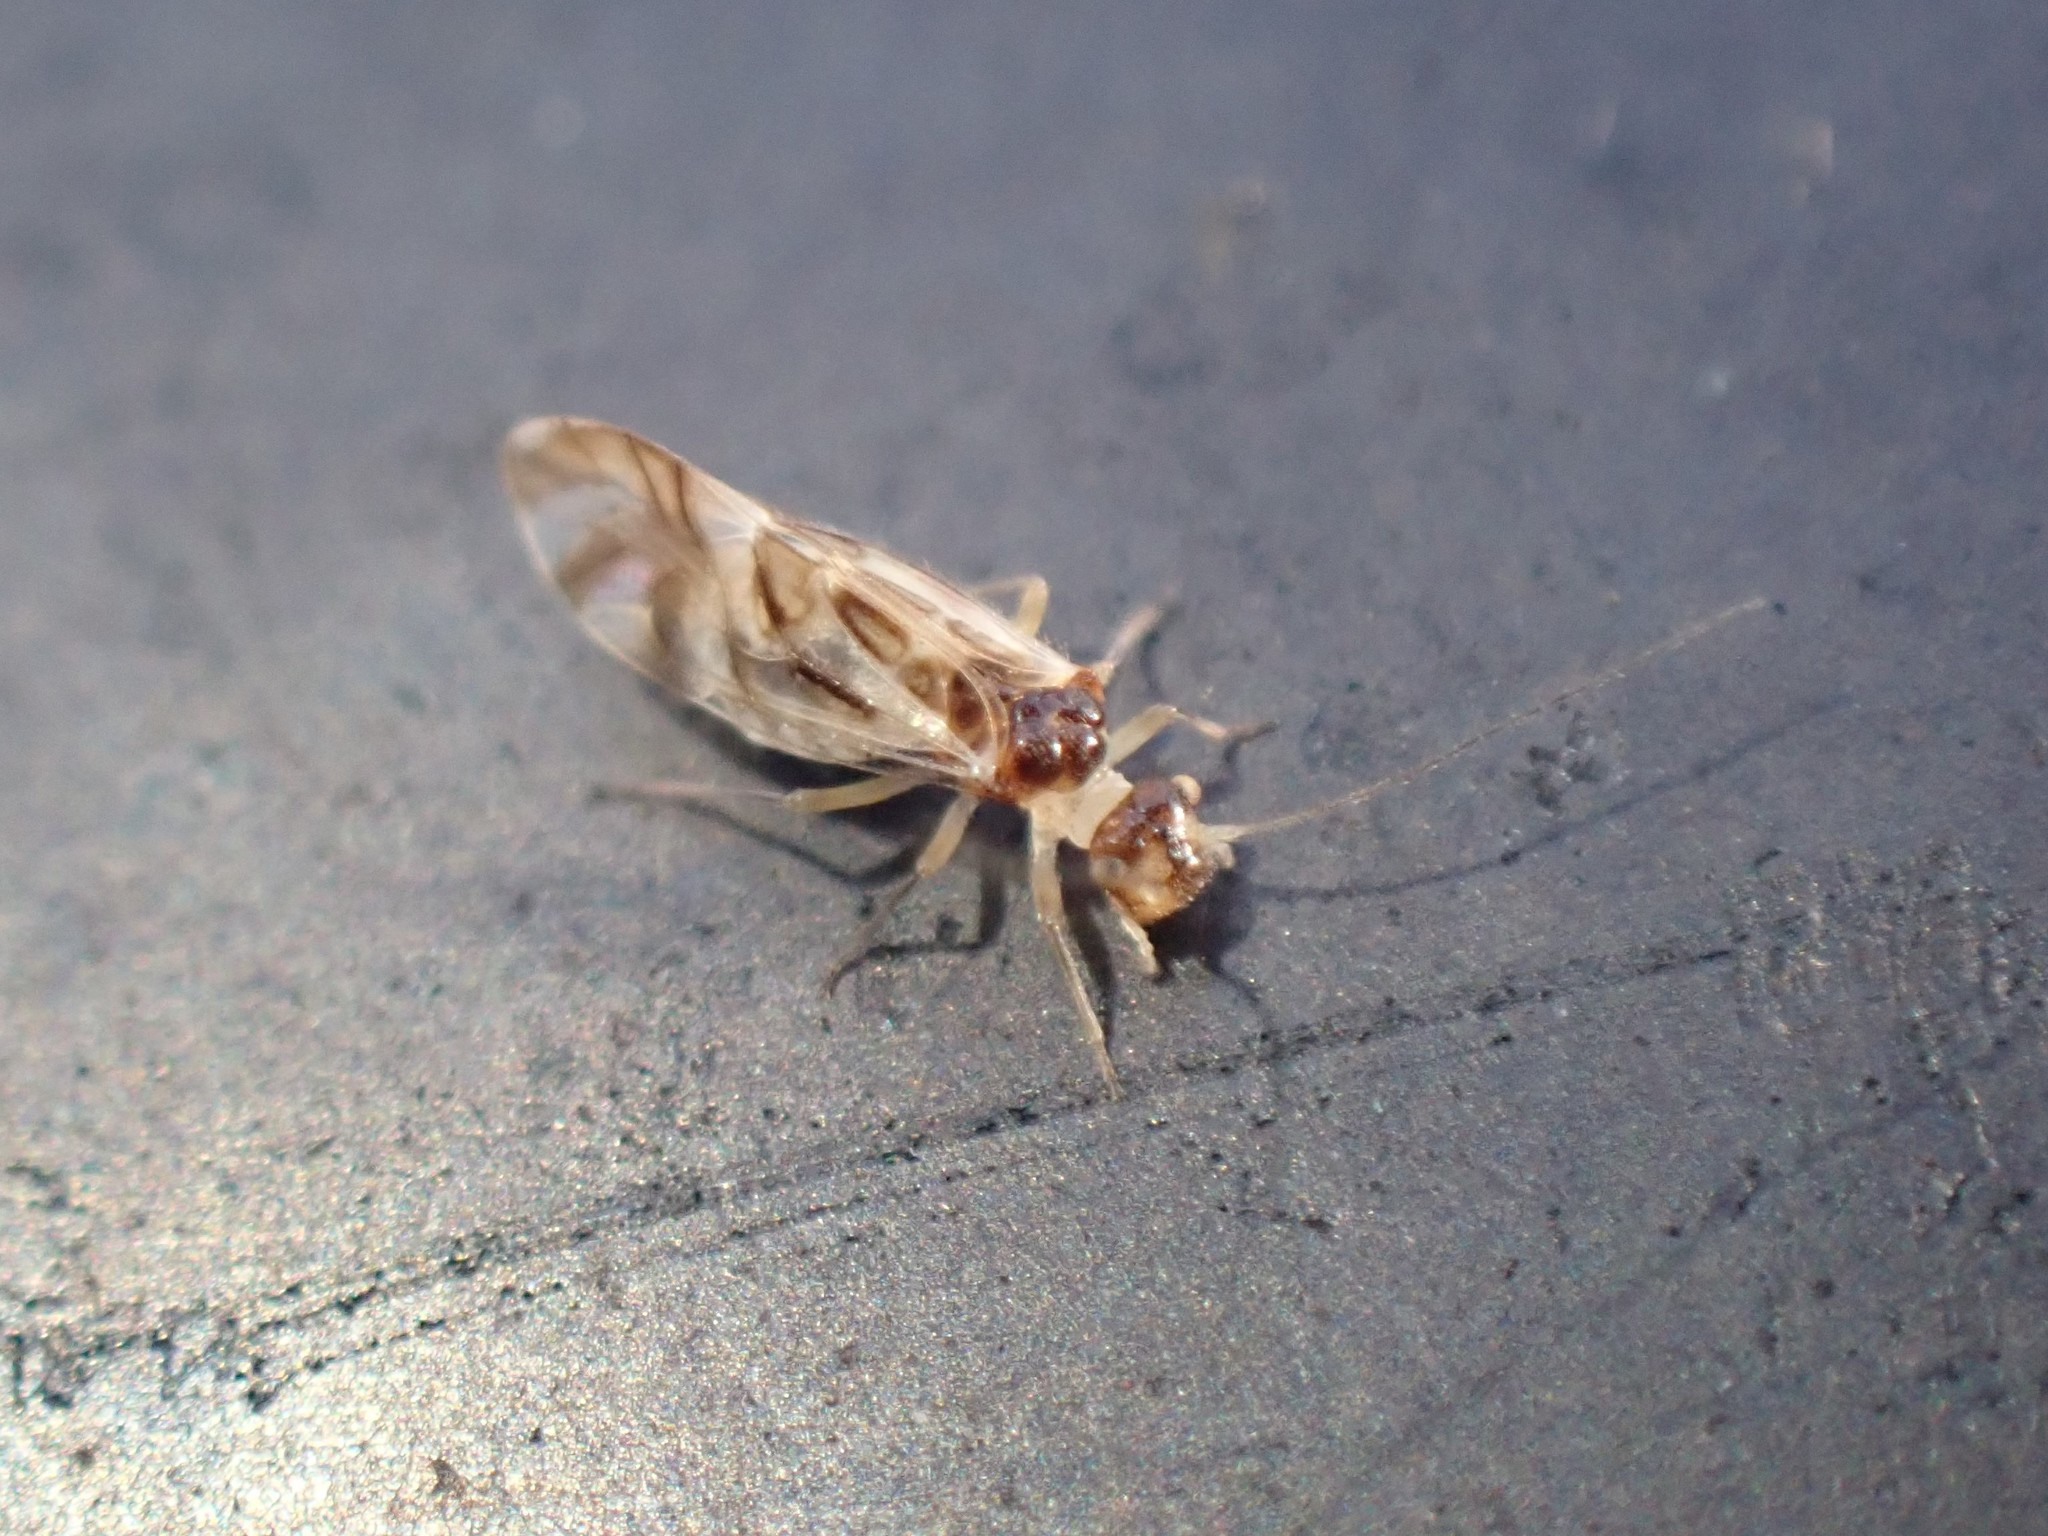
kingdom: Animalia
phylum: Arthropoda
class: Insecta
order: Psocodea
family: Stenopsocidae
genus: Graphopsocus
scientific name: Graphopsocus cruciatus
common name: Lizard bark louse
